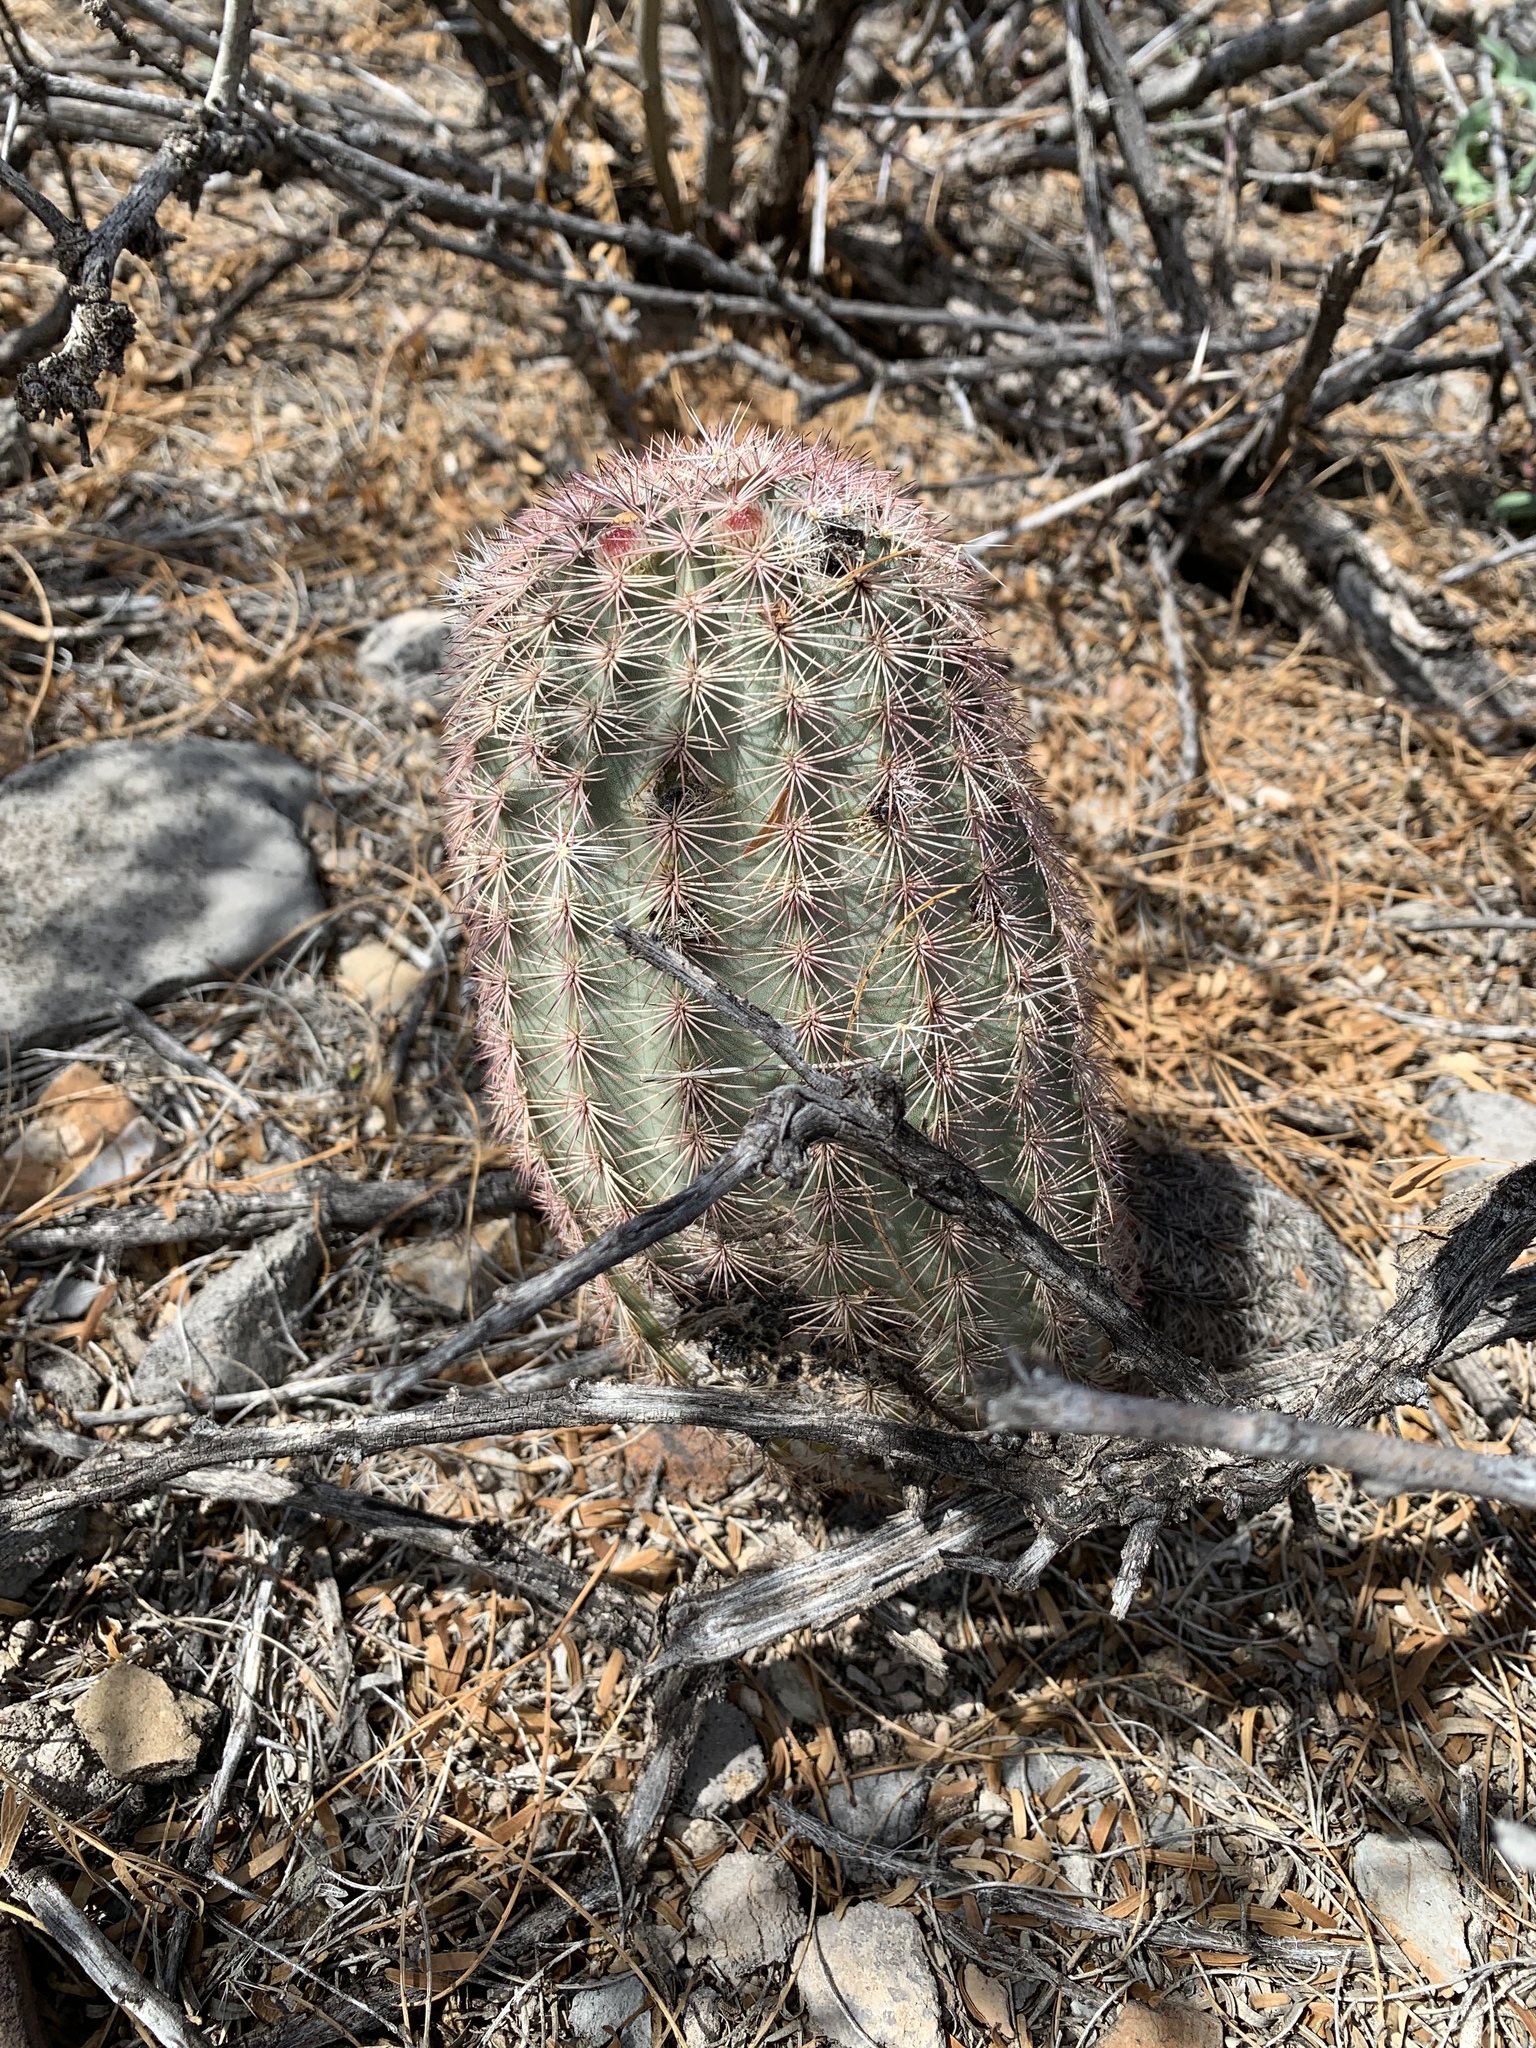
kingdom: Plantae
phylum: Tracheophyta
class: Magnoliopsida
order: Caryophyllales
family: Cactaceae
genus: Echinocereus
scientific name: Echinocereus dasyacanthus
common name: Spiny hedgehog cactus
